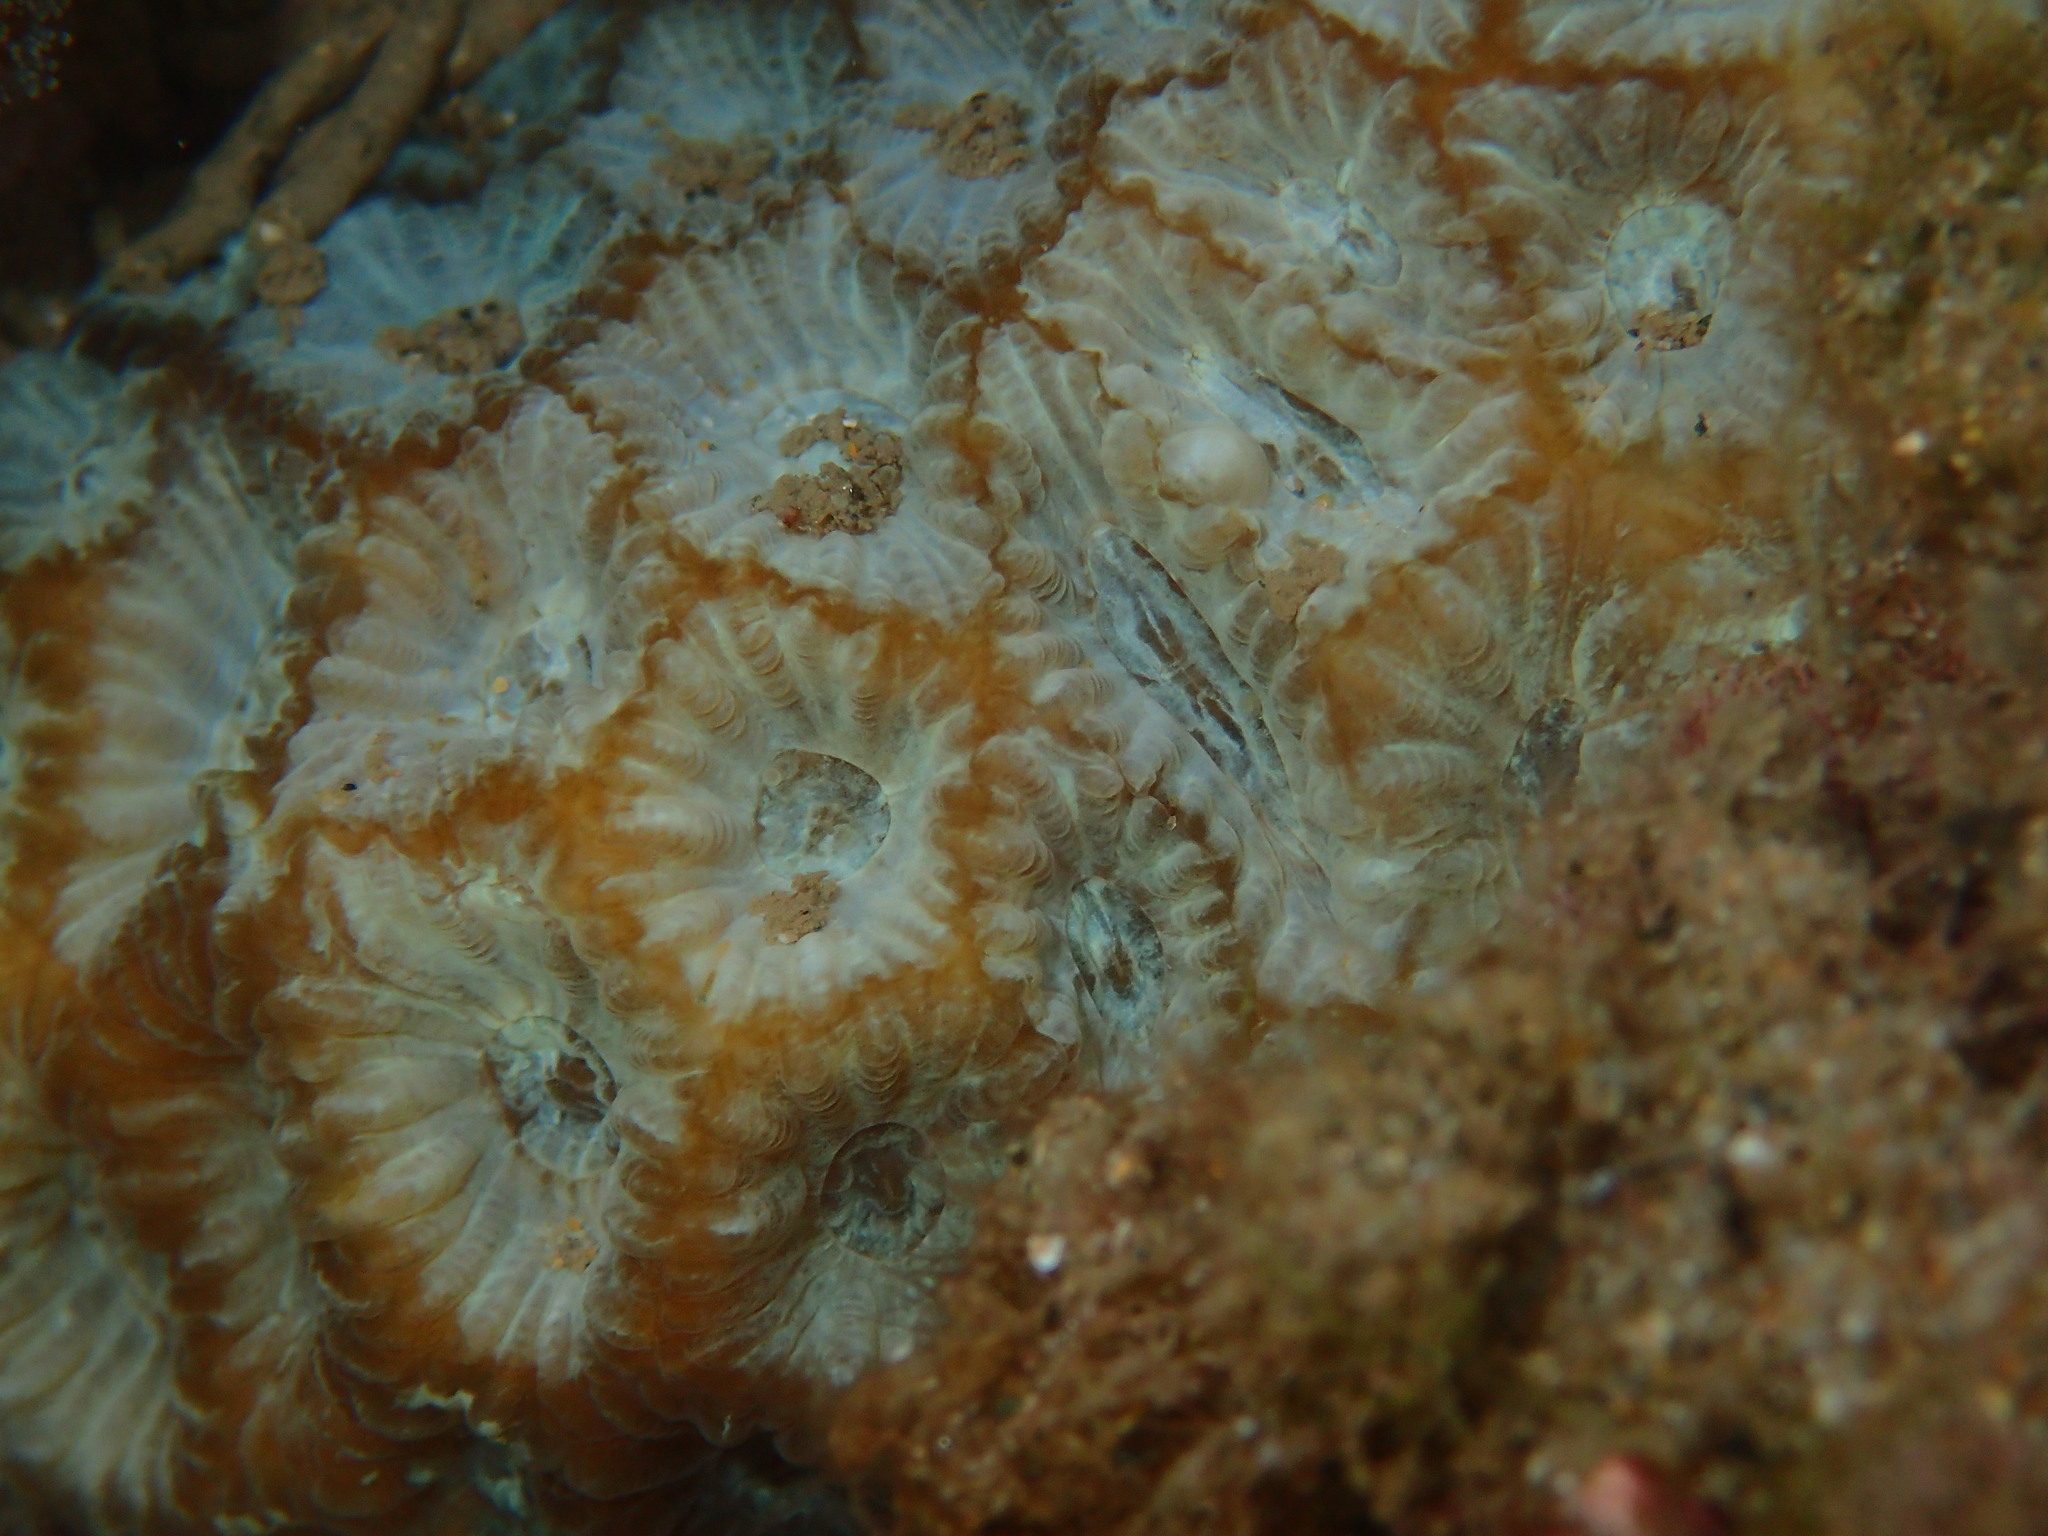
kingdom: Animalia
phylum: Cnidaria
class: Anthozoa
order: Scleractinia
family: Merulinidae
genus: Favites
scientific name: Favites pentagona
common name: Larger star coral
